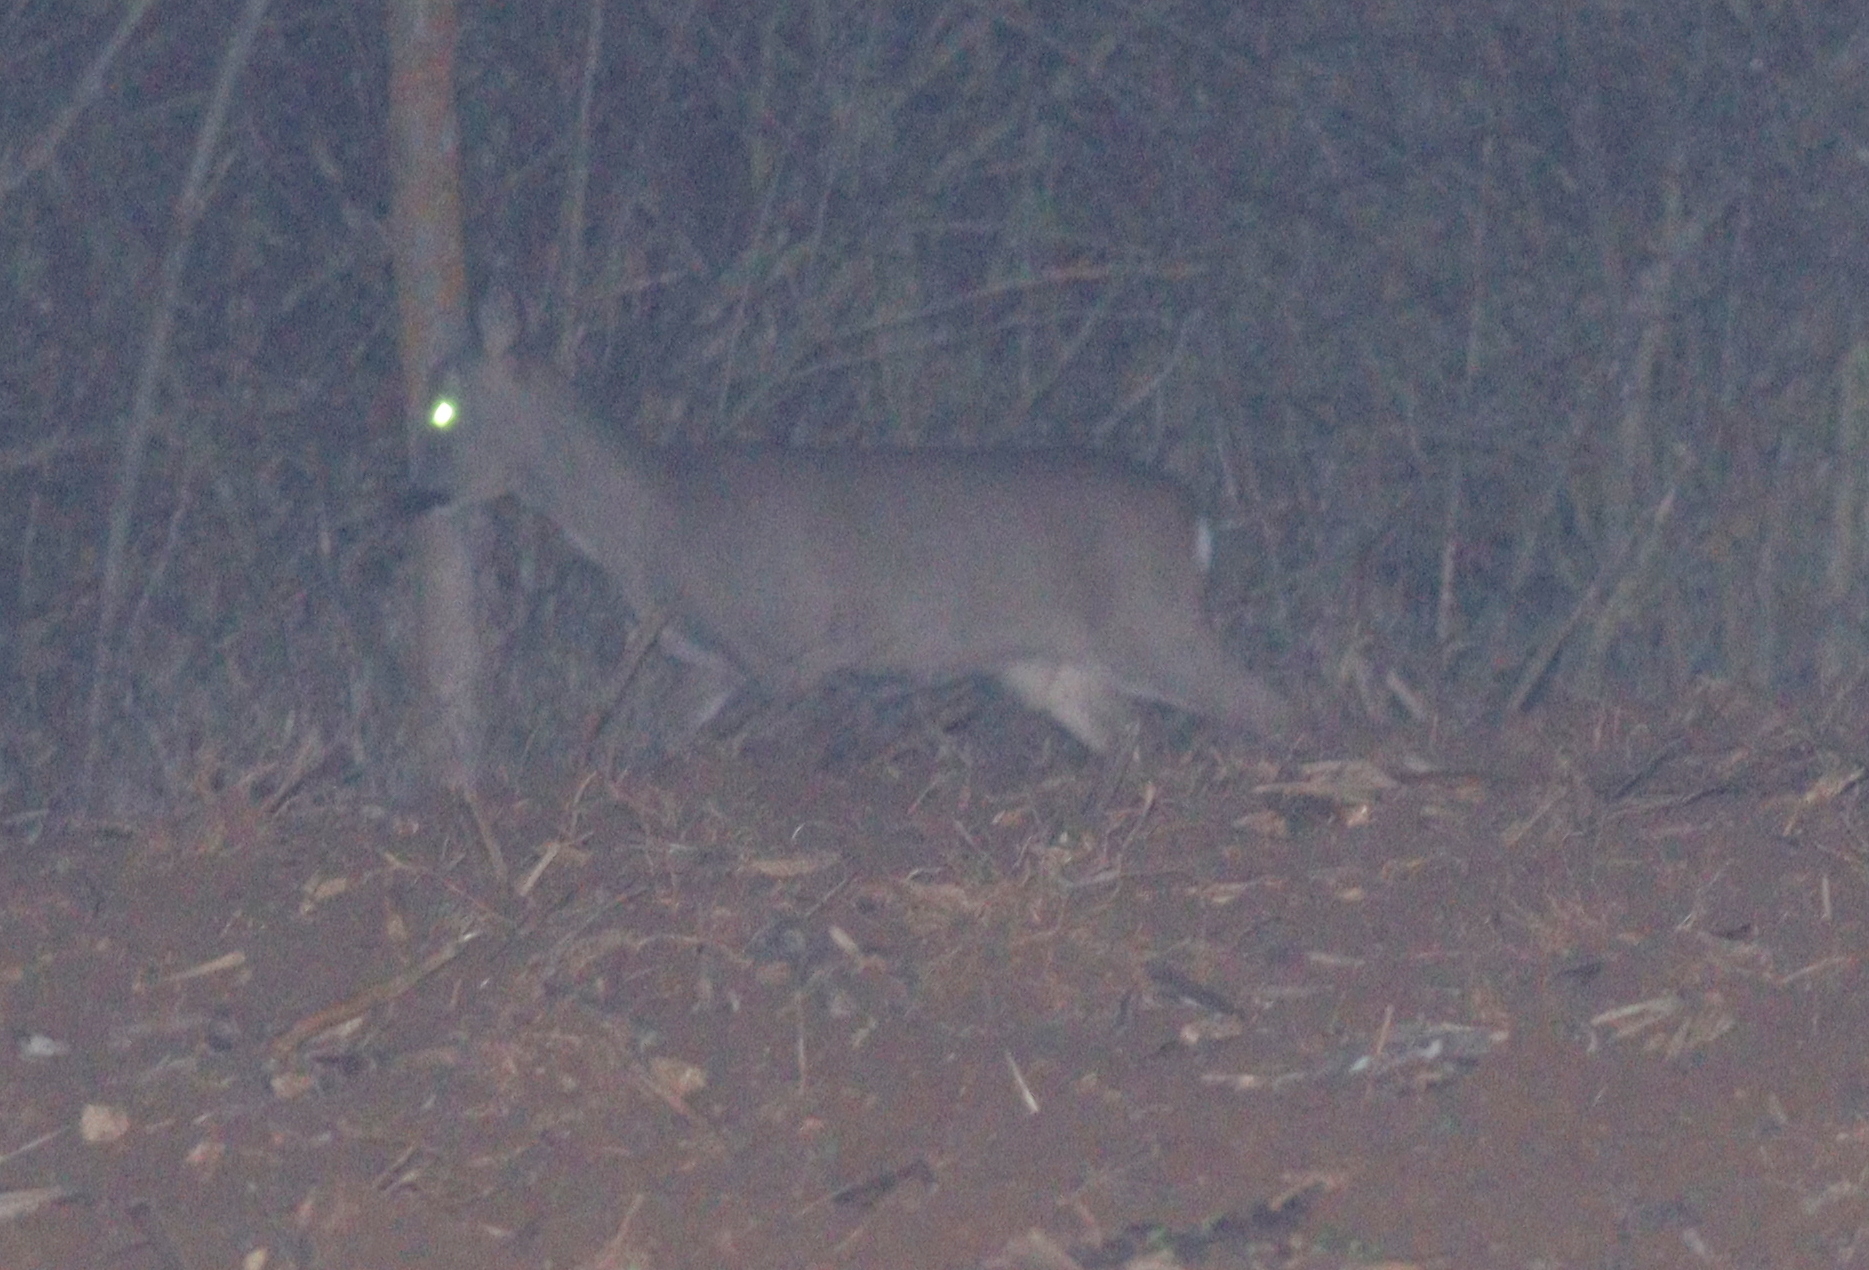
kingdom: Animalia
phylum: Chordata
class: Mammalia
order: Artiodactyla
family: Cervidae
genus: Capreolus
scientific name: Capreolus capreolus
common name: Western roe deer
